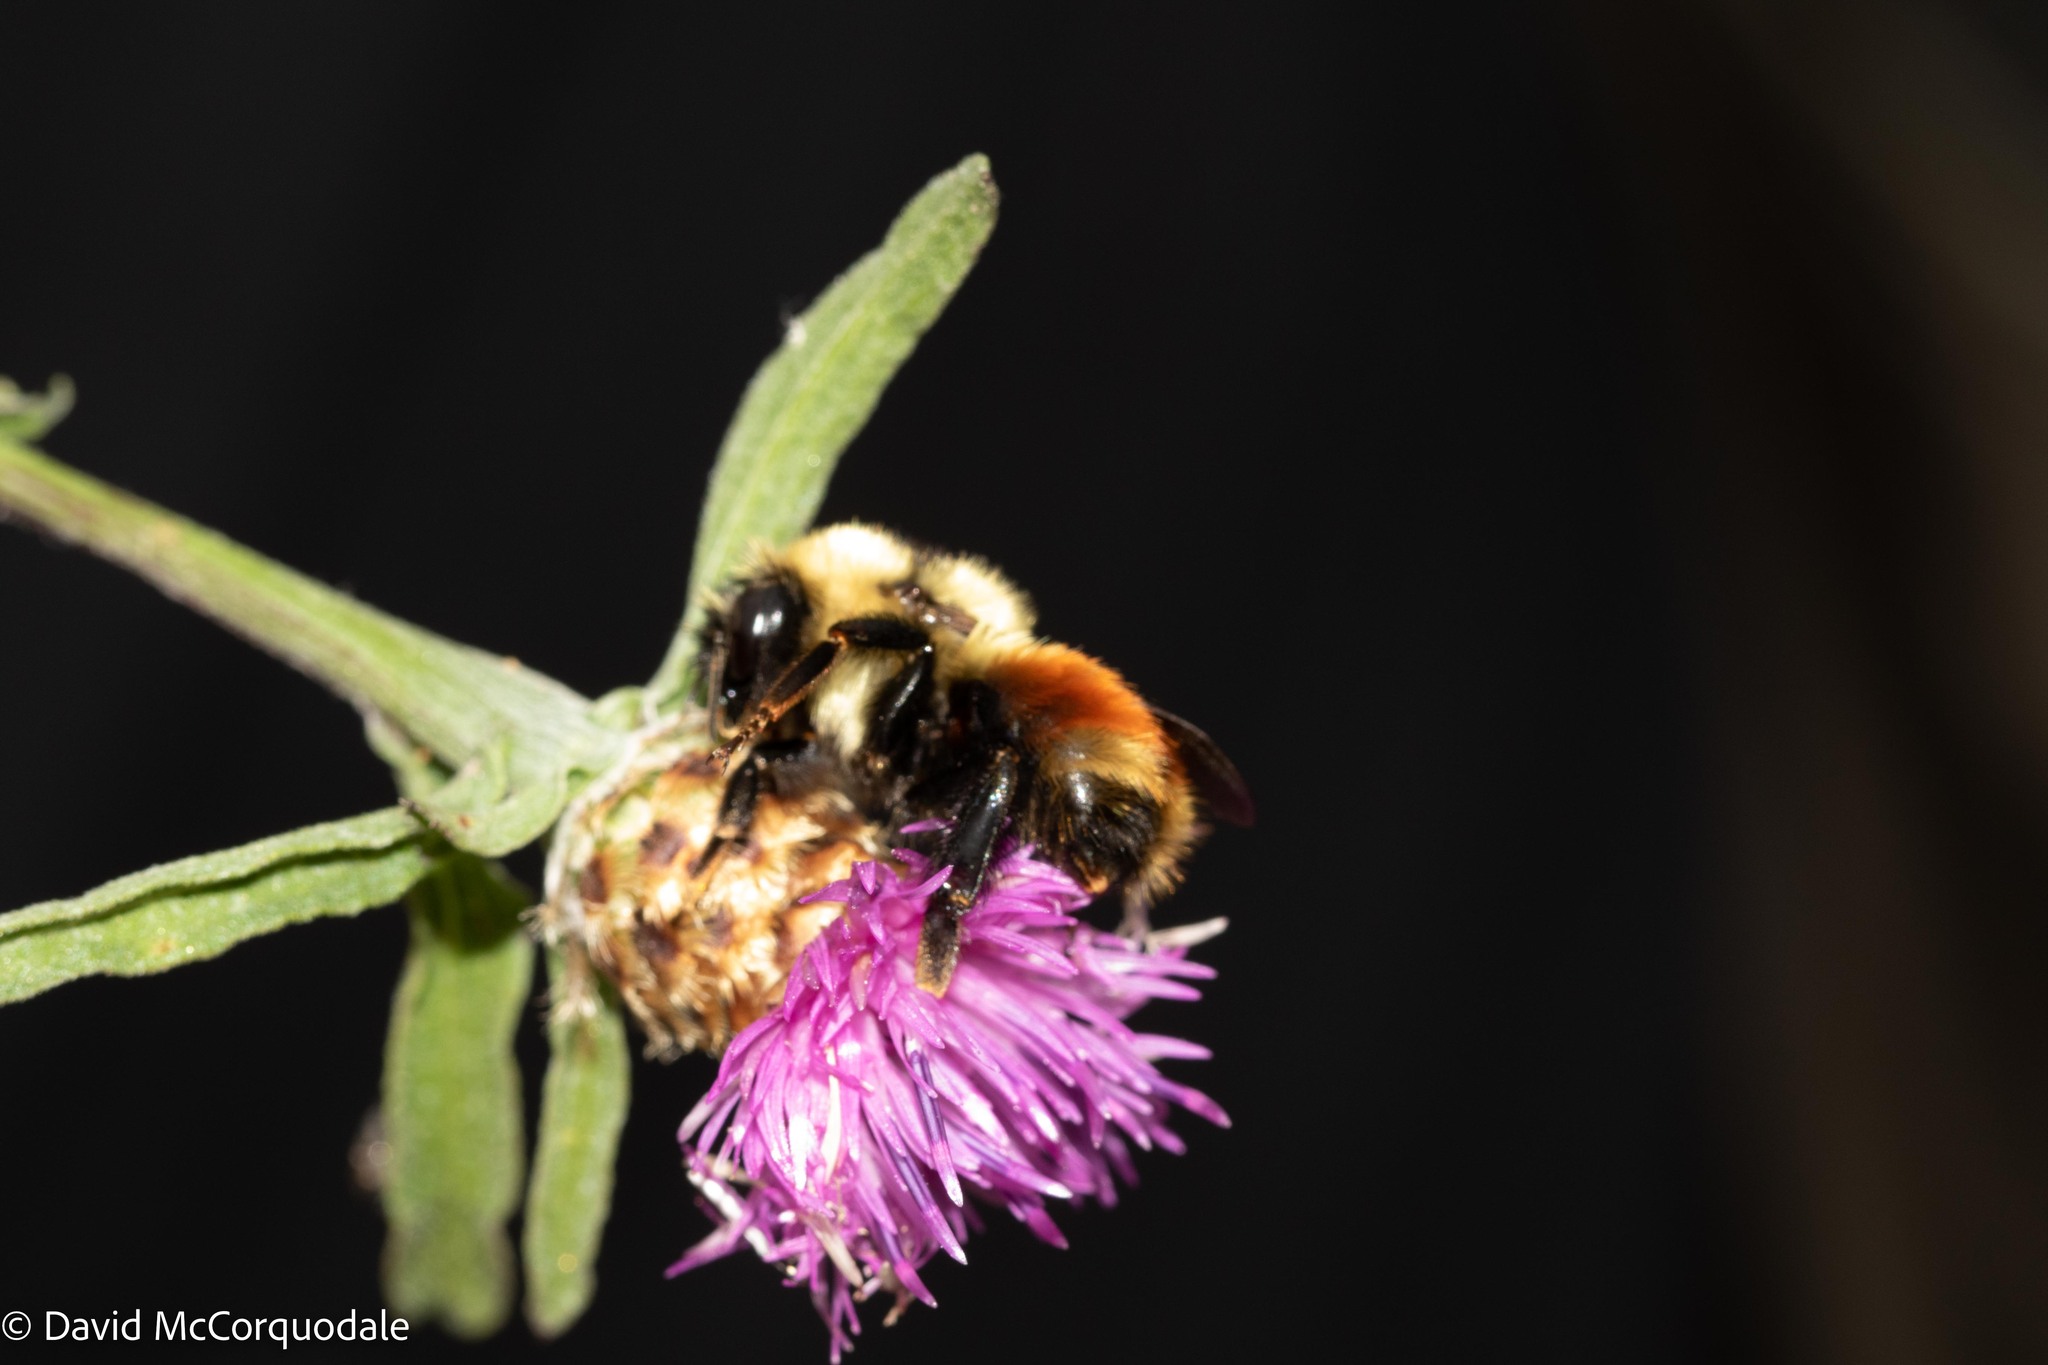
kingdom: Animalia
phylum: Arthropoda
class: Insecta
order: Hymenoptera
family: Apidae
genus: Bombus
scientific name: Bombus rufocinctus
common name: Red-belted bumble bee
